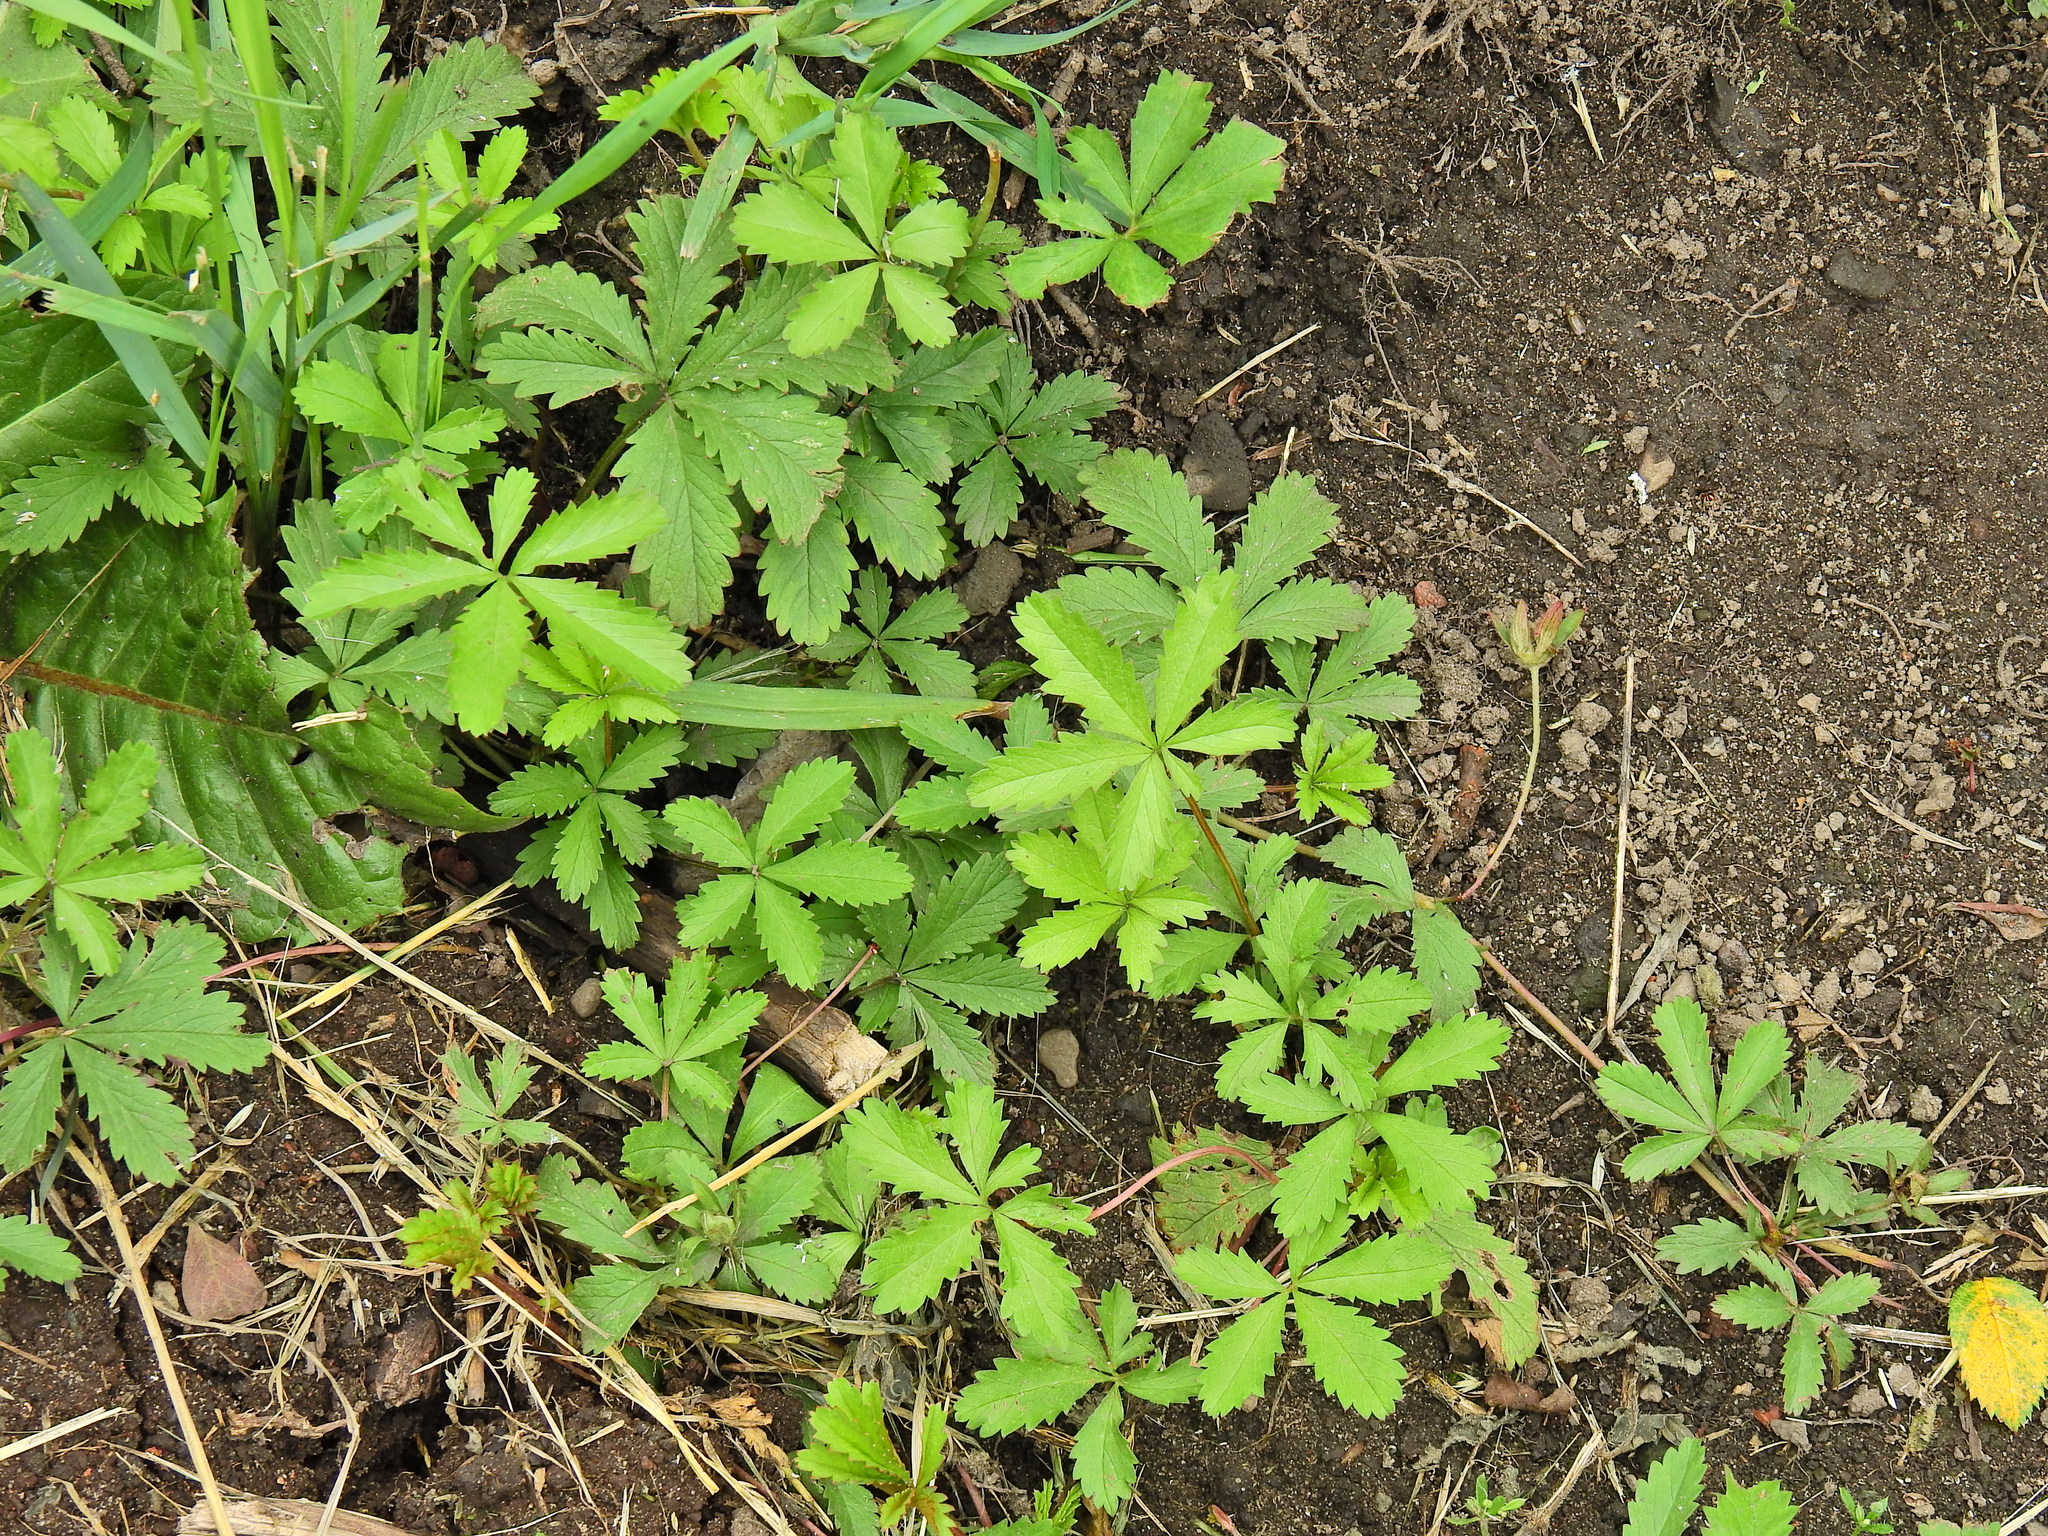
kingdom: Plantae
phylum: Tracheophyta
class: Magnoliopsida
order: Rosales
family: Rosaceae
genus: Potentilla
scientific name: Potentilla reptans
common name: Creeping cinquefoil
